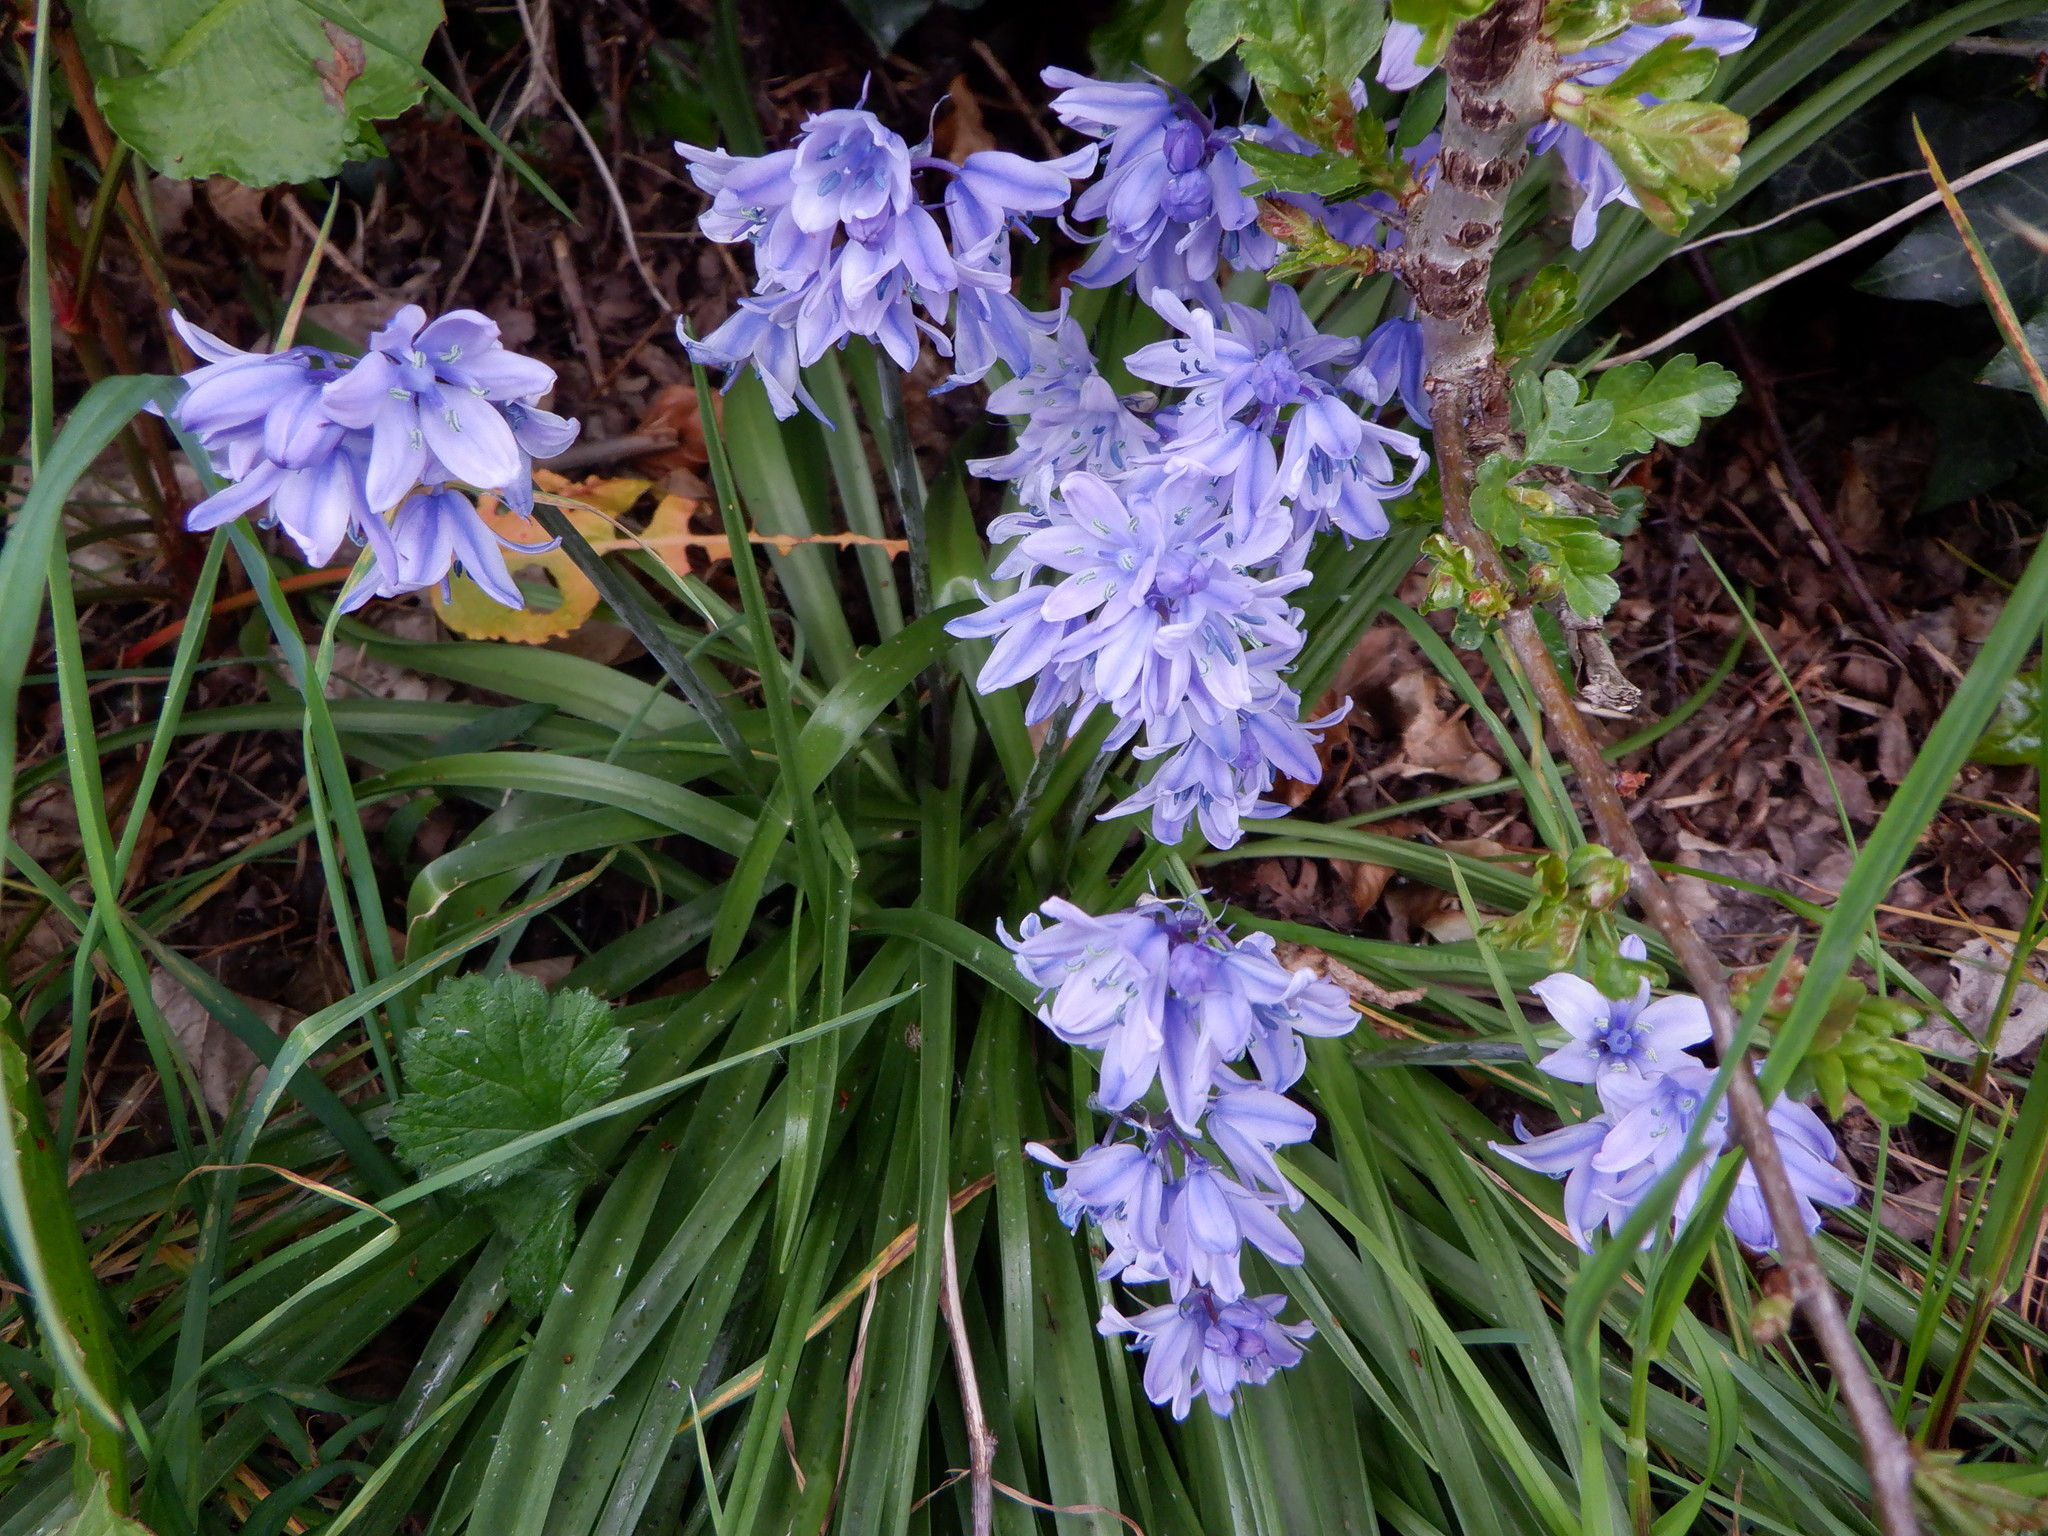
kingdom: Plantae
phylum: Tracheophyta
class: Liliopsida
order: Asparagales
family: Asparagaceae
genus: Hyacinthoides
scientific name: Hyacinthoides massartiana
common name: Hyacinthoides
